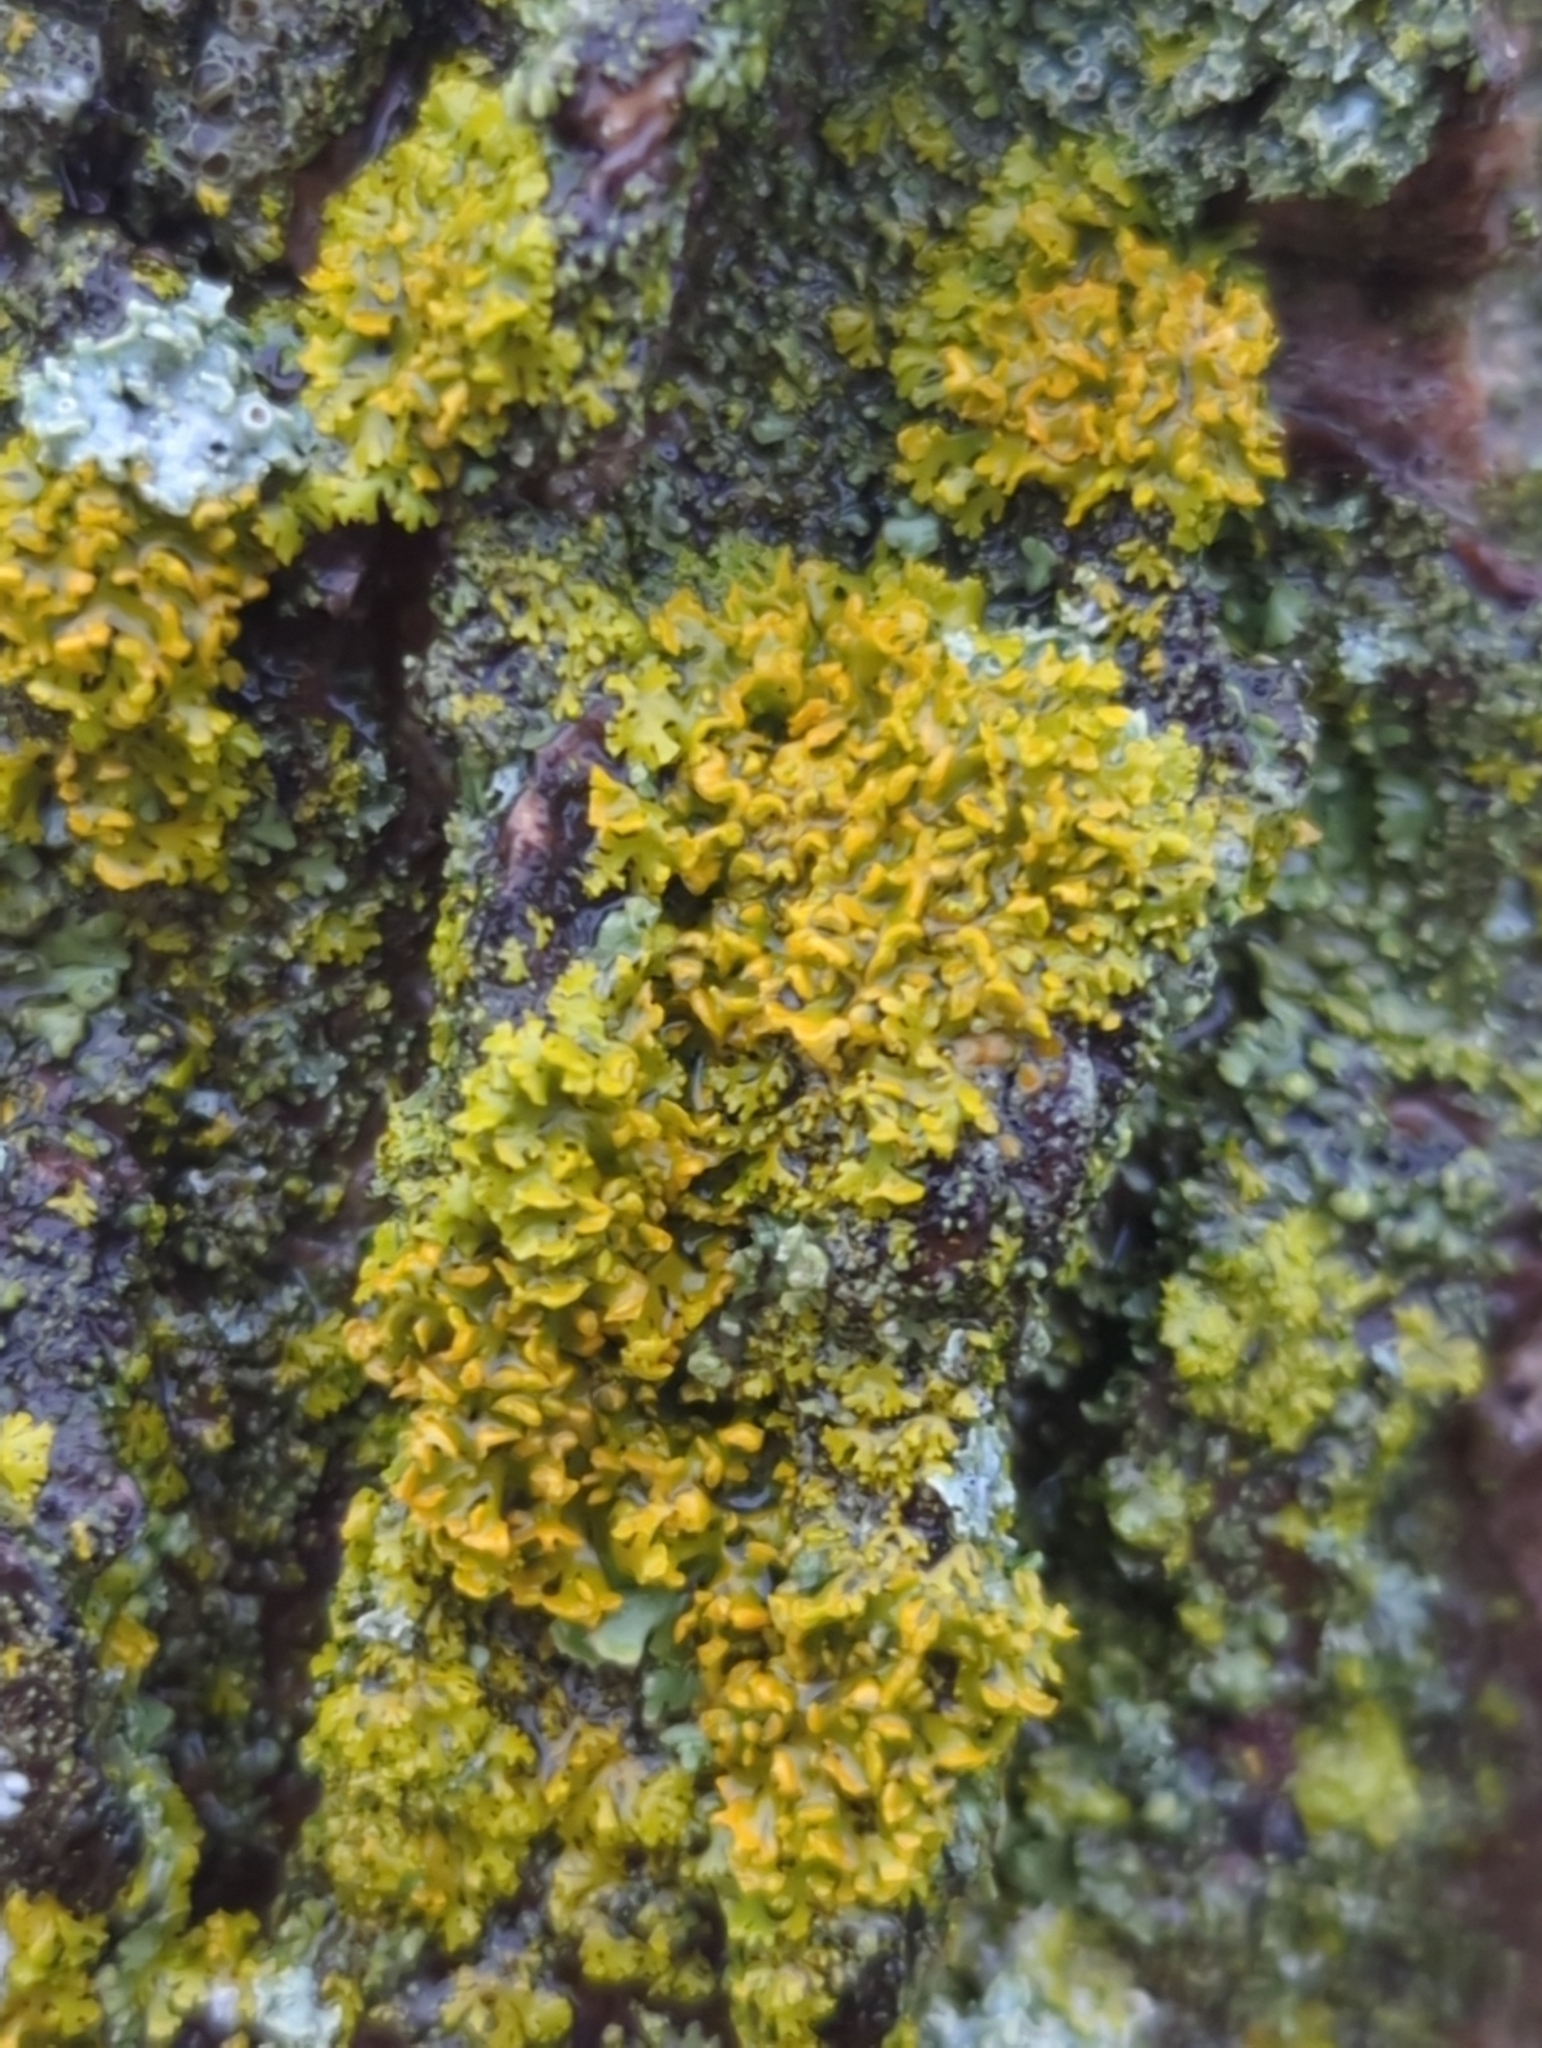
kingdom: Fungi
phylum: Ascomycota
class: Lecanoromycetes
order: Teloschistales
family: Teloschistaceae
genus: Gallowayella
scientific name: Gallowayella weberi
